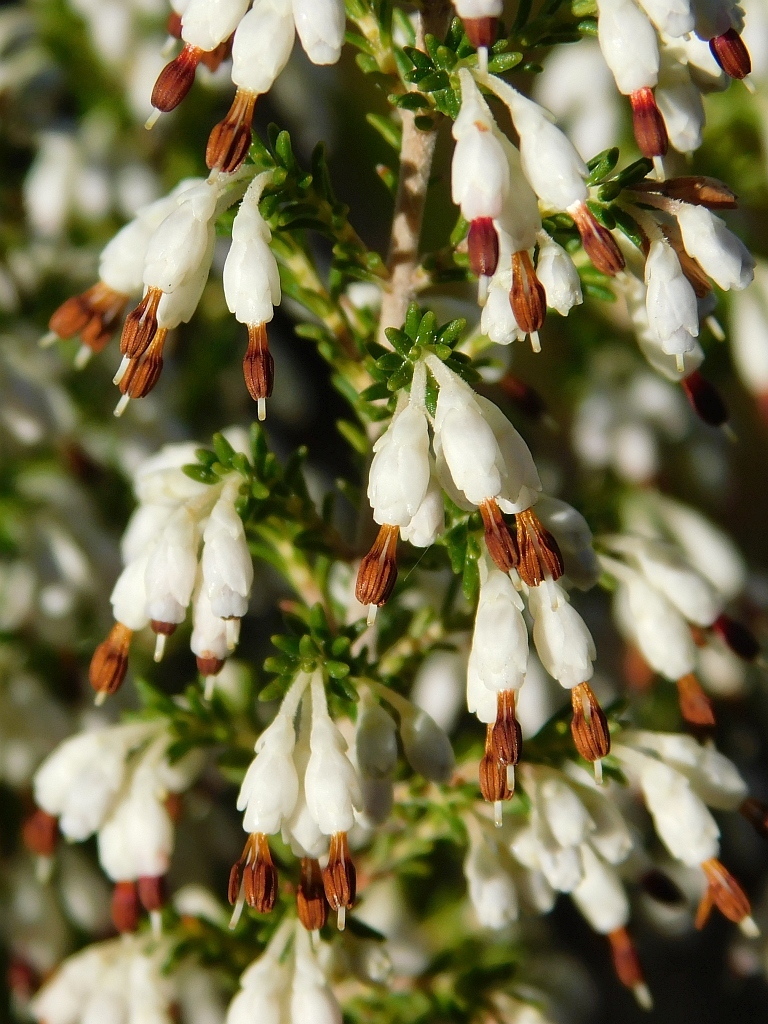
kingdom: Plantae
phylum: Tracheophyta
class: Magnoliopsida
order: Ericales
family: Ericaceae
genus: Erica
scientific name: Erica imbricata
